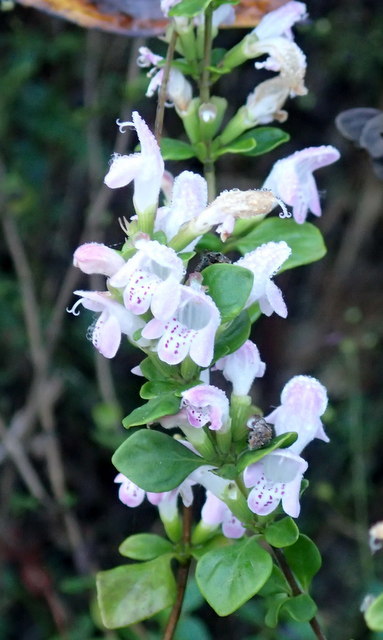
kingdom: Plantae
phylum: Tracheophyta
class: Magnoliopsida
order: Lamiales
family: Lamiaceae
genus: Clinopodium
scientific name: Clinopodium carolinianum
